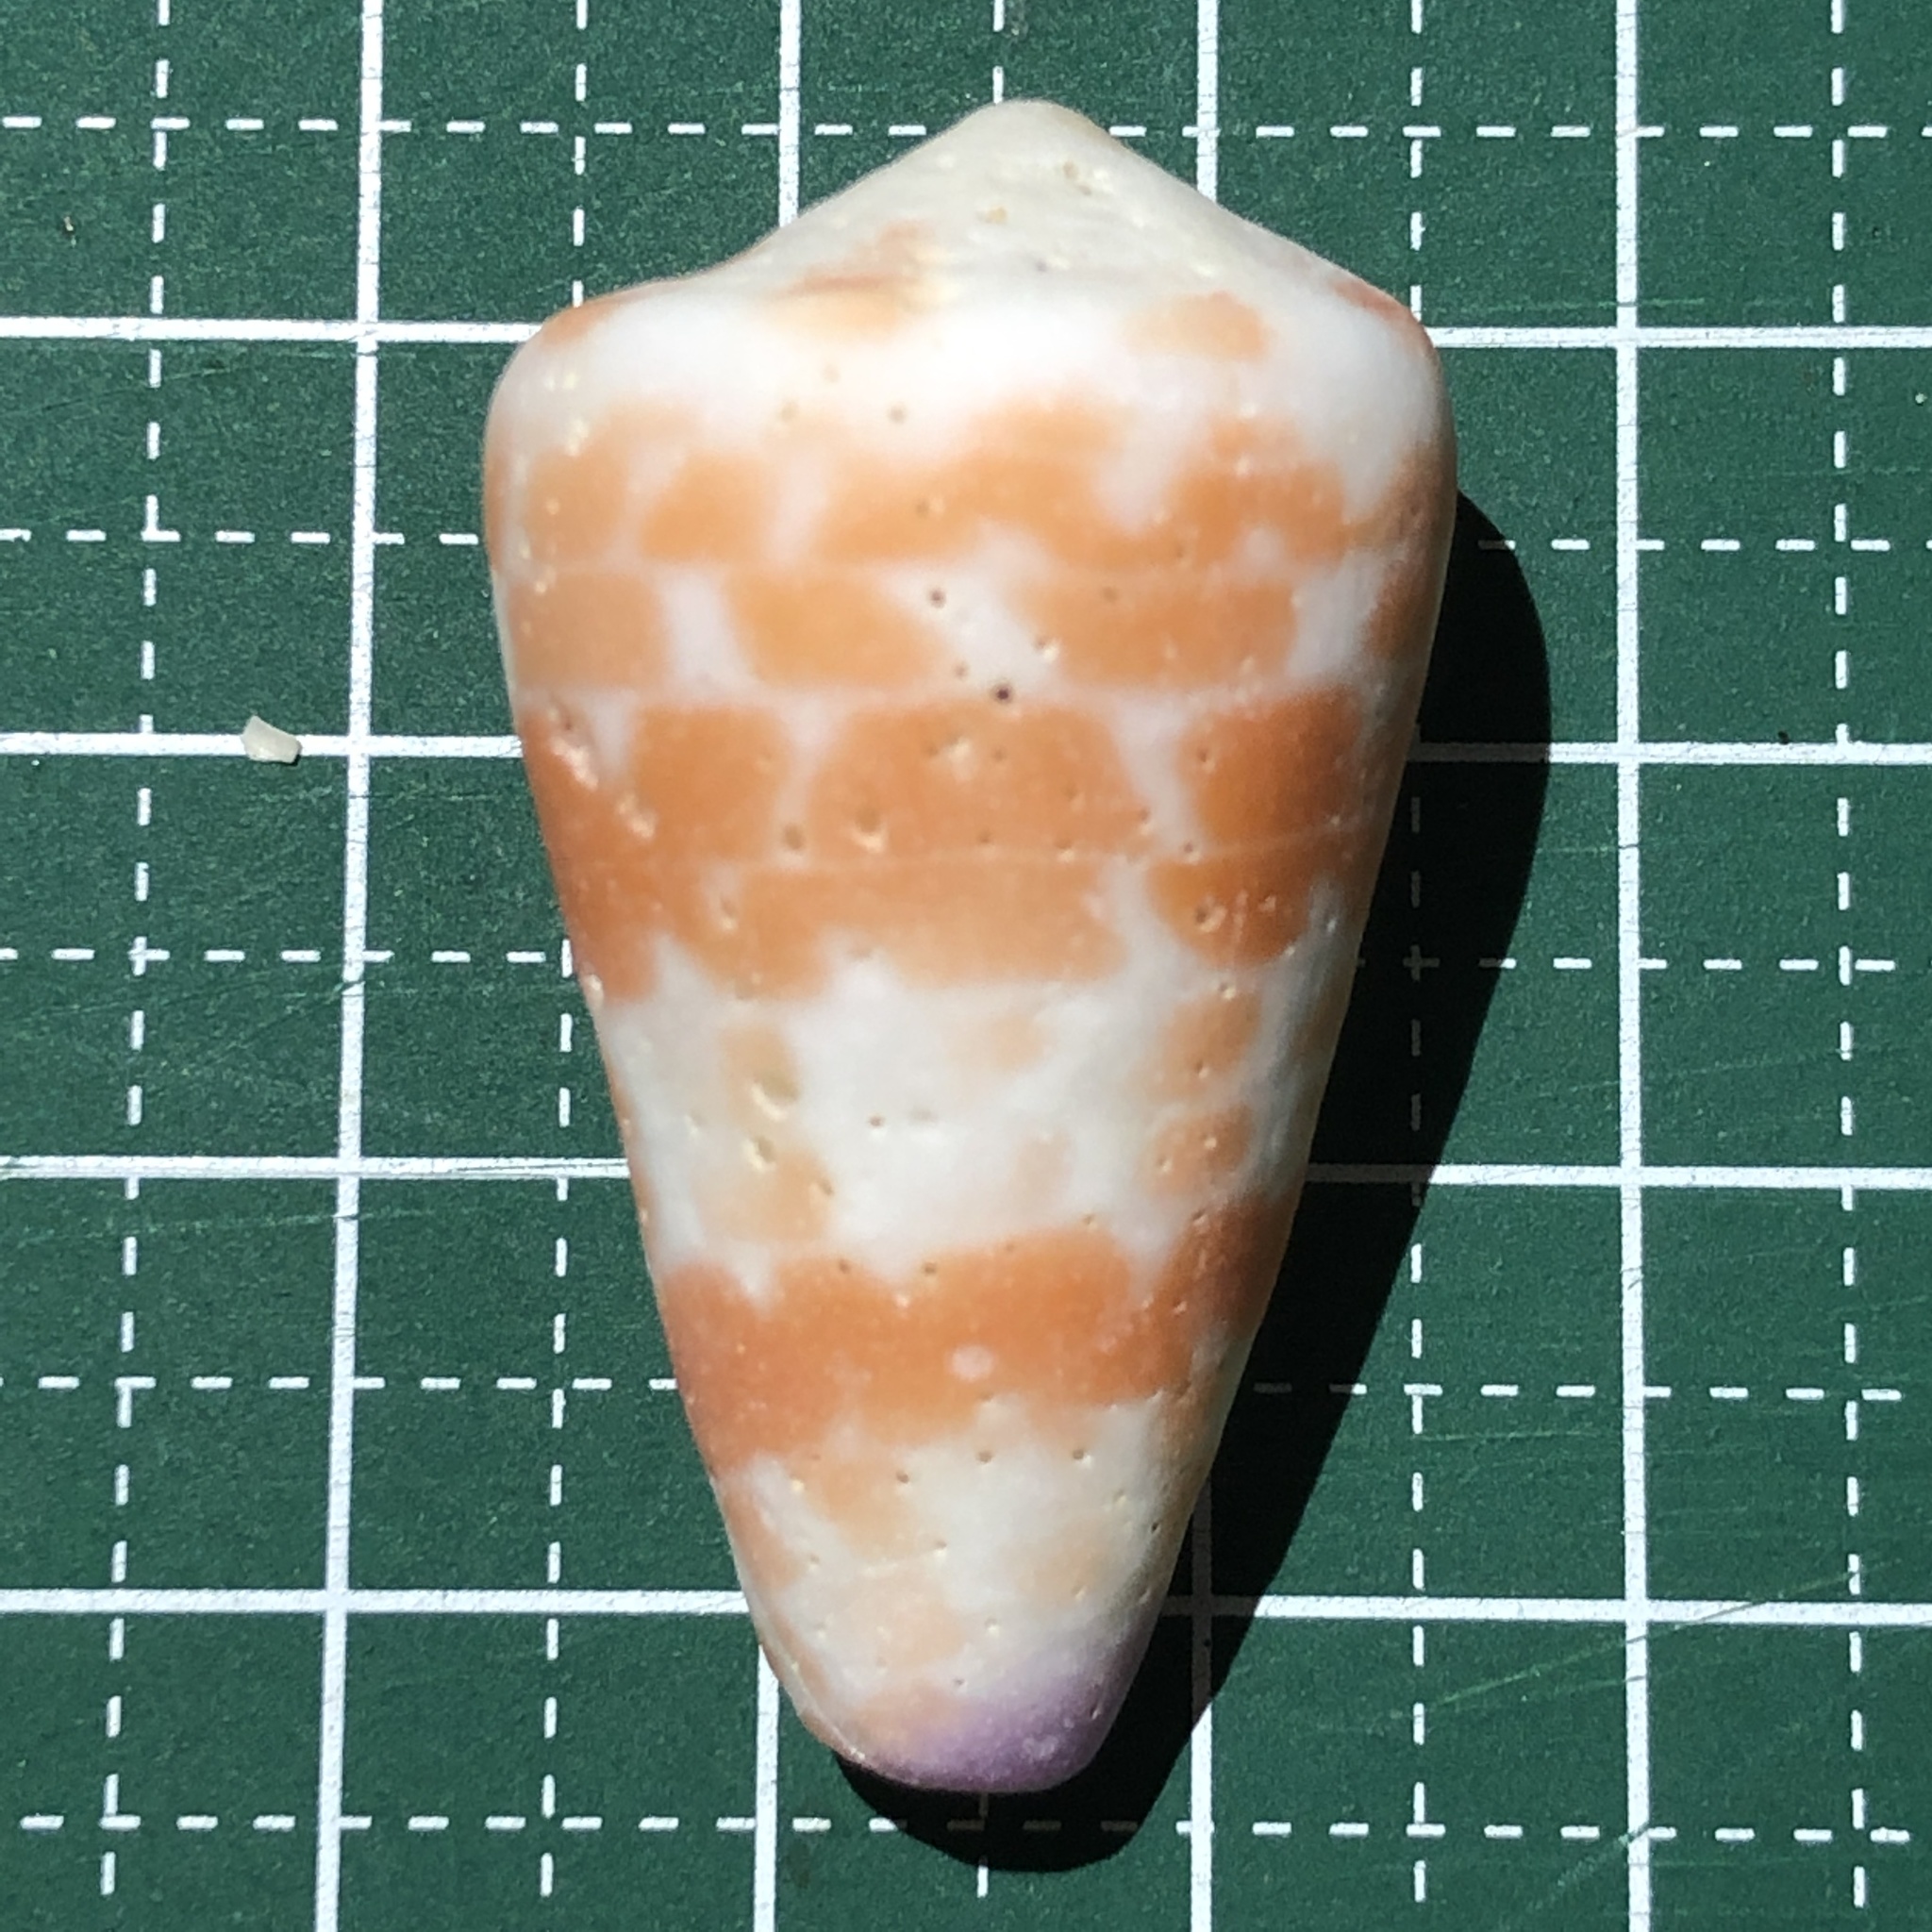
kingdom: Animalia
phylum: Mollusca
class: Gastropoda
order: Neogastropoda
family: Conidae
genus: Conus
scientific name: Conus tessulatus
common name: Tessellate cone
